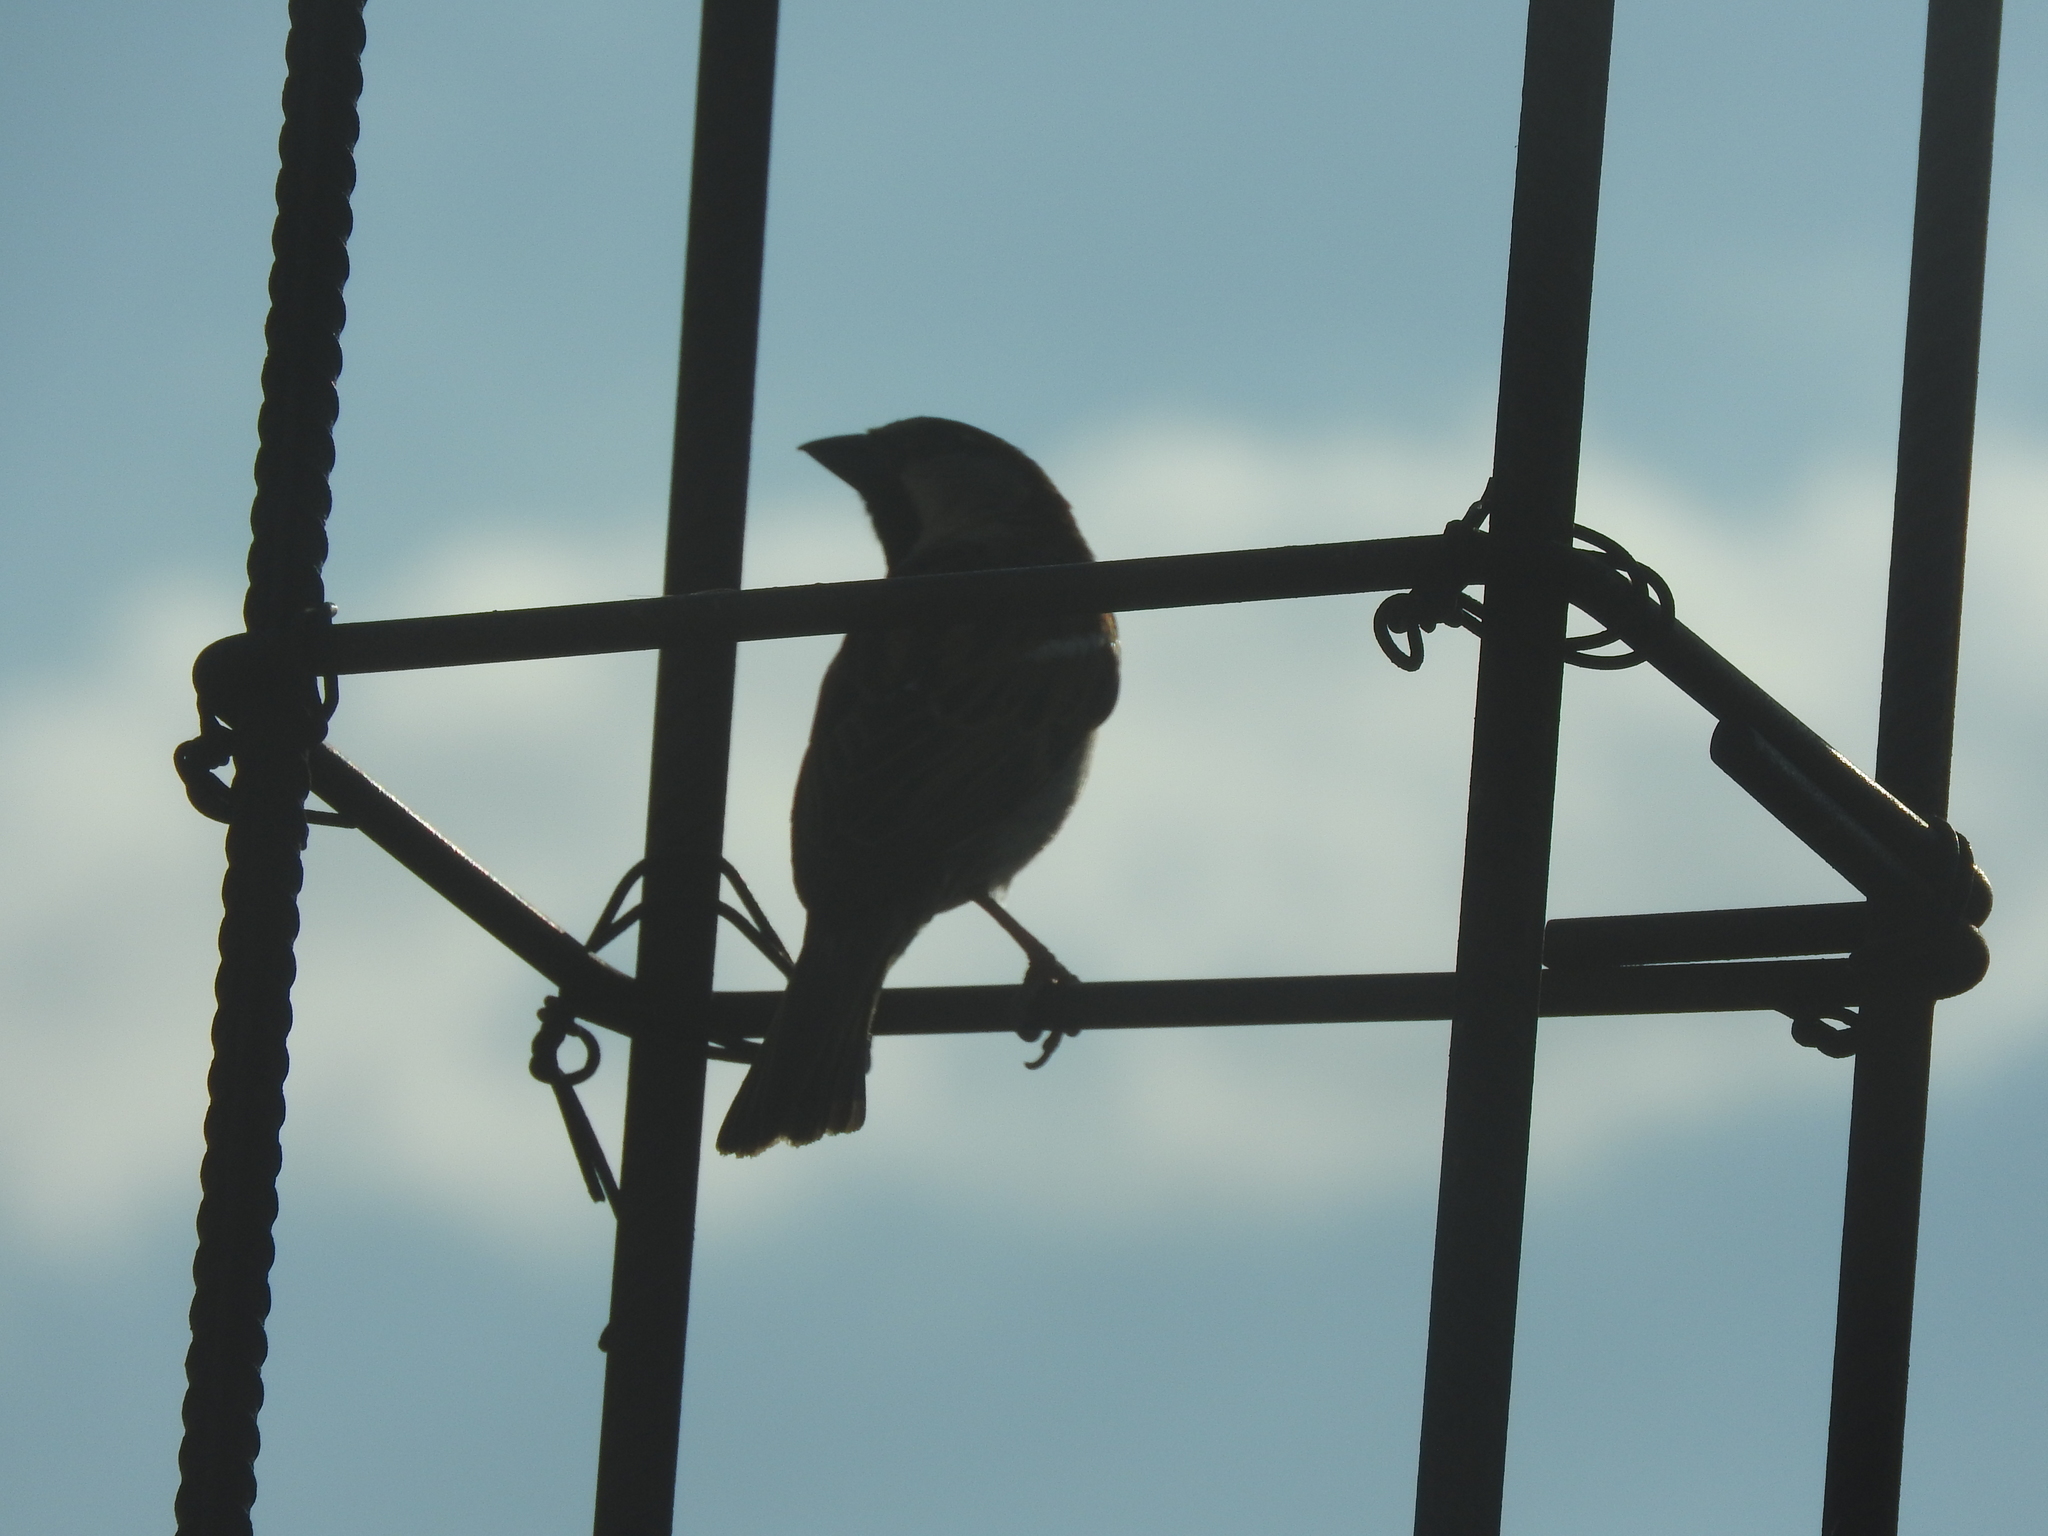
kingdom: Animalia
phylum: Chordata
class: Aves
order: Passeriformes
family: Passeridae
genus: Passer
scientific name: Passer domesticus
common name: House sparrow
